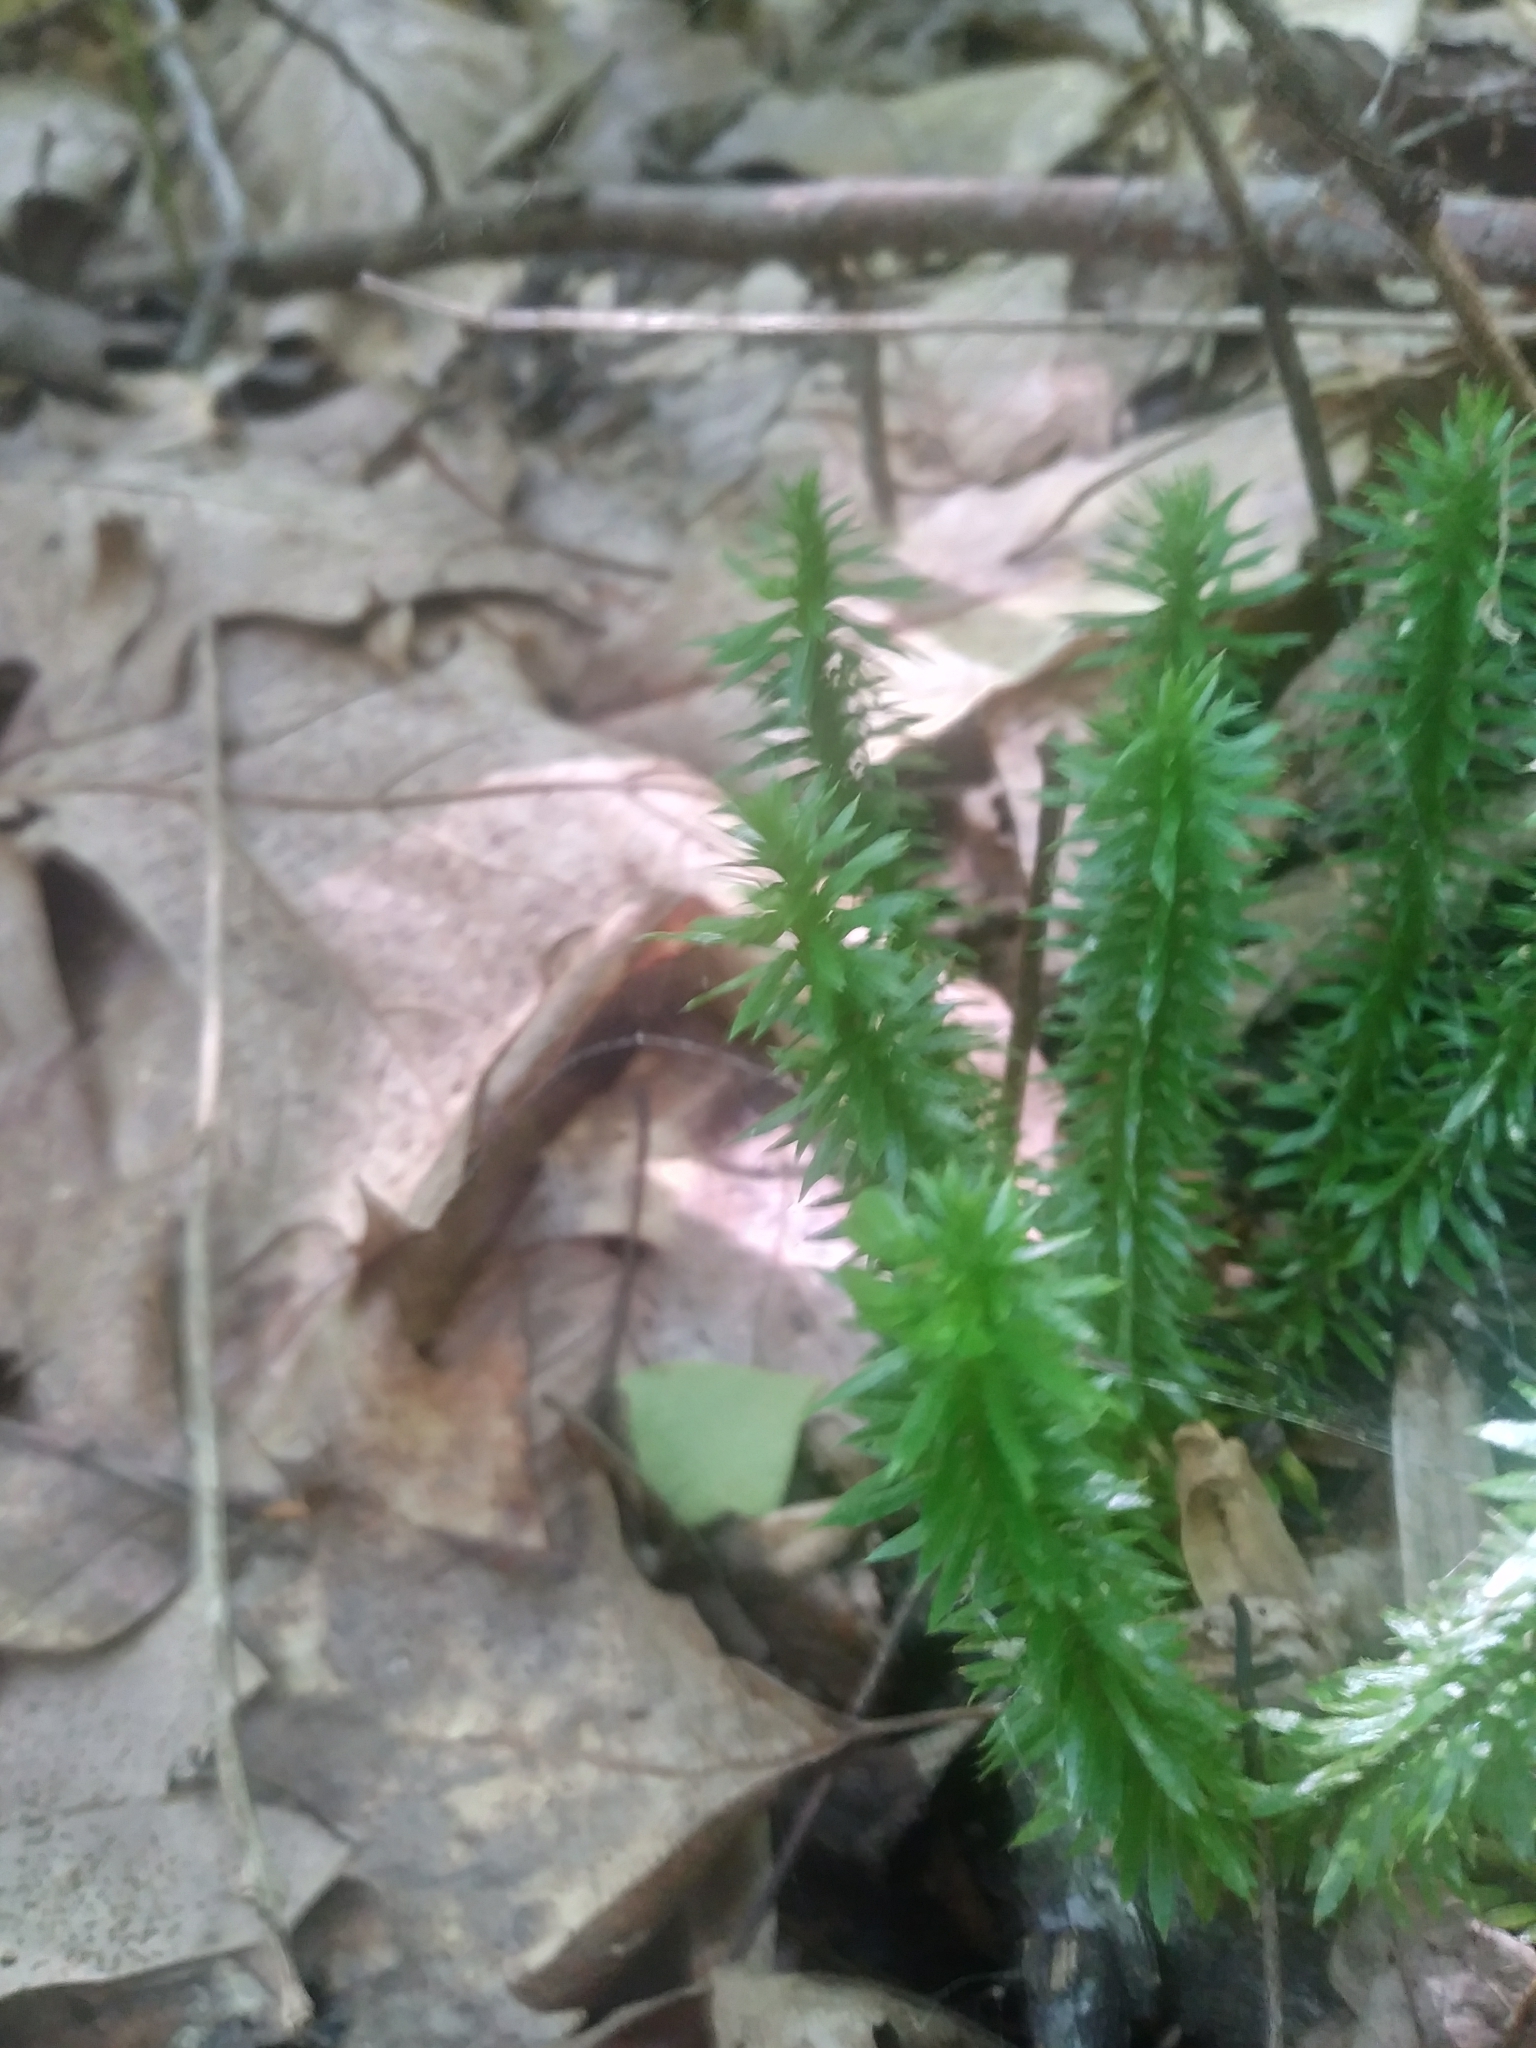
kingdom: Plantae
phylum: Tracheophyta
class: Lycopodiopsida
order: Lycopodiales
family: Lycopodiaceae
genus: Huperzia
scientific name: Huperzia lucidula
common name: Shining clubmoss
